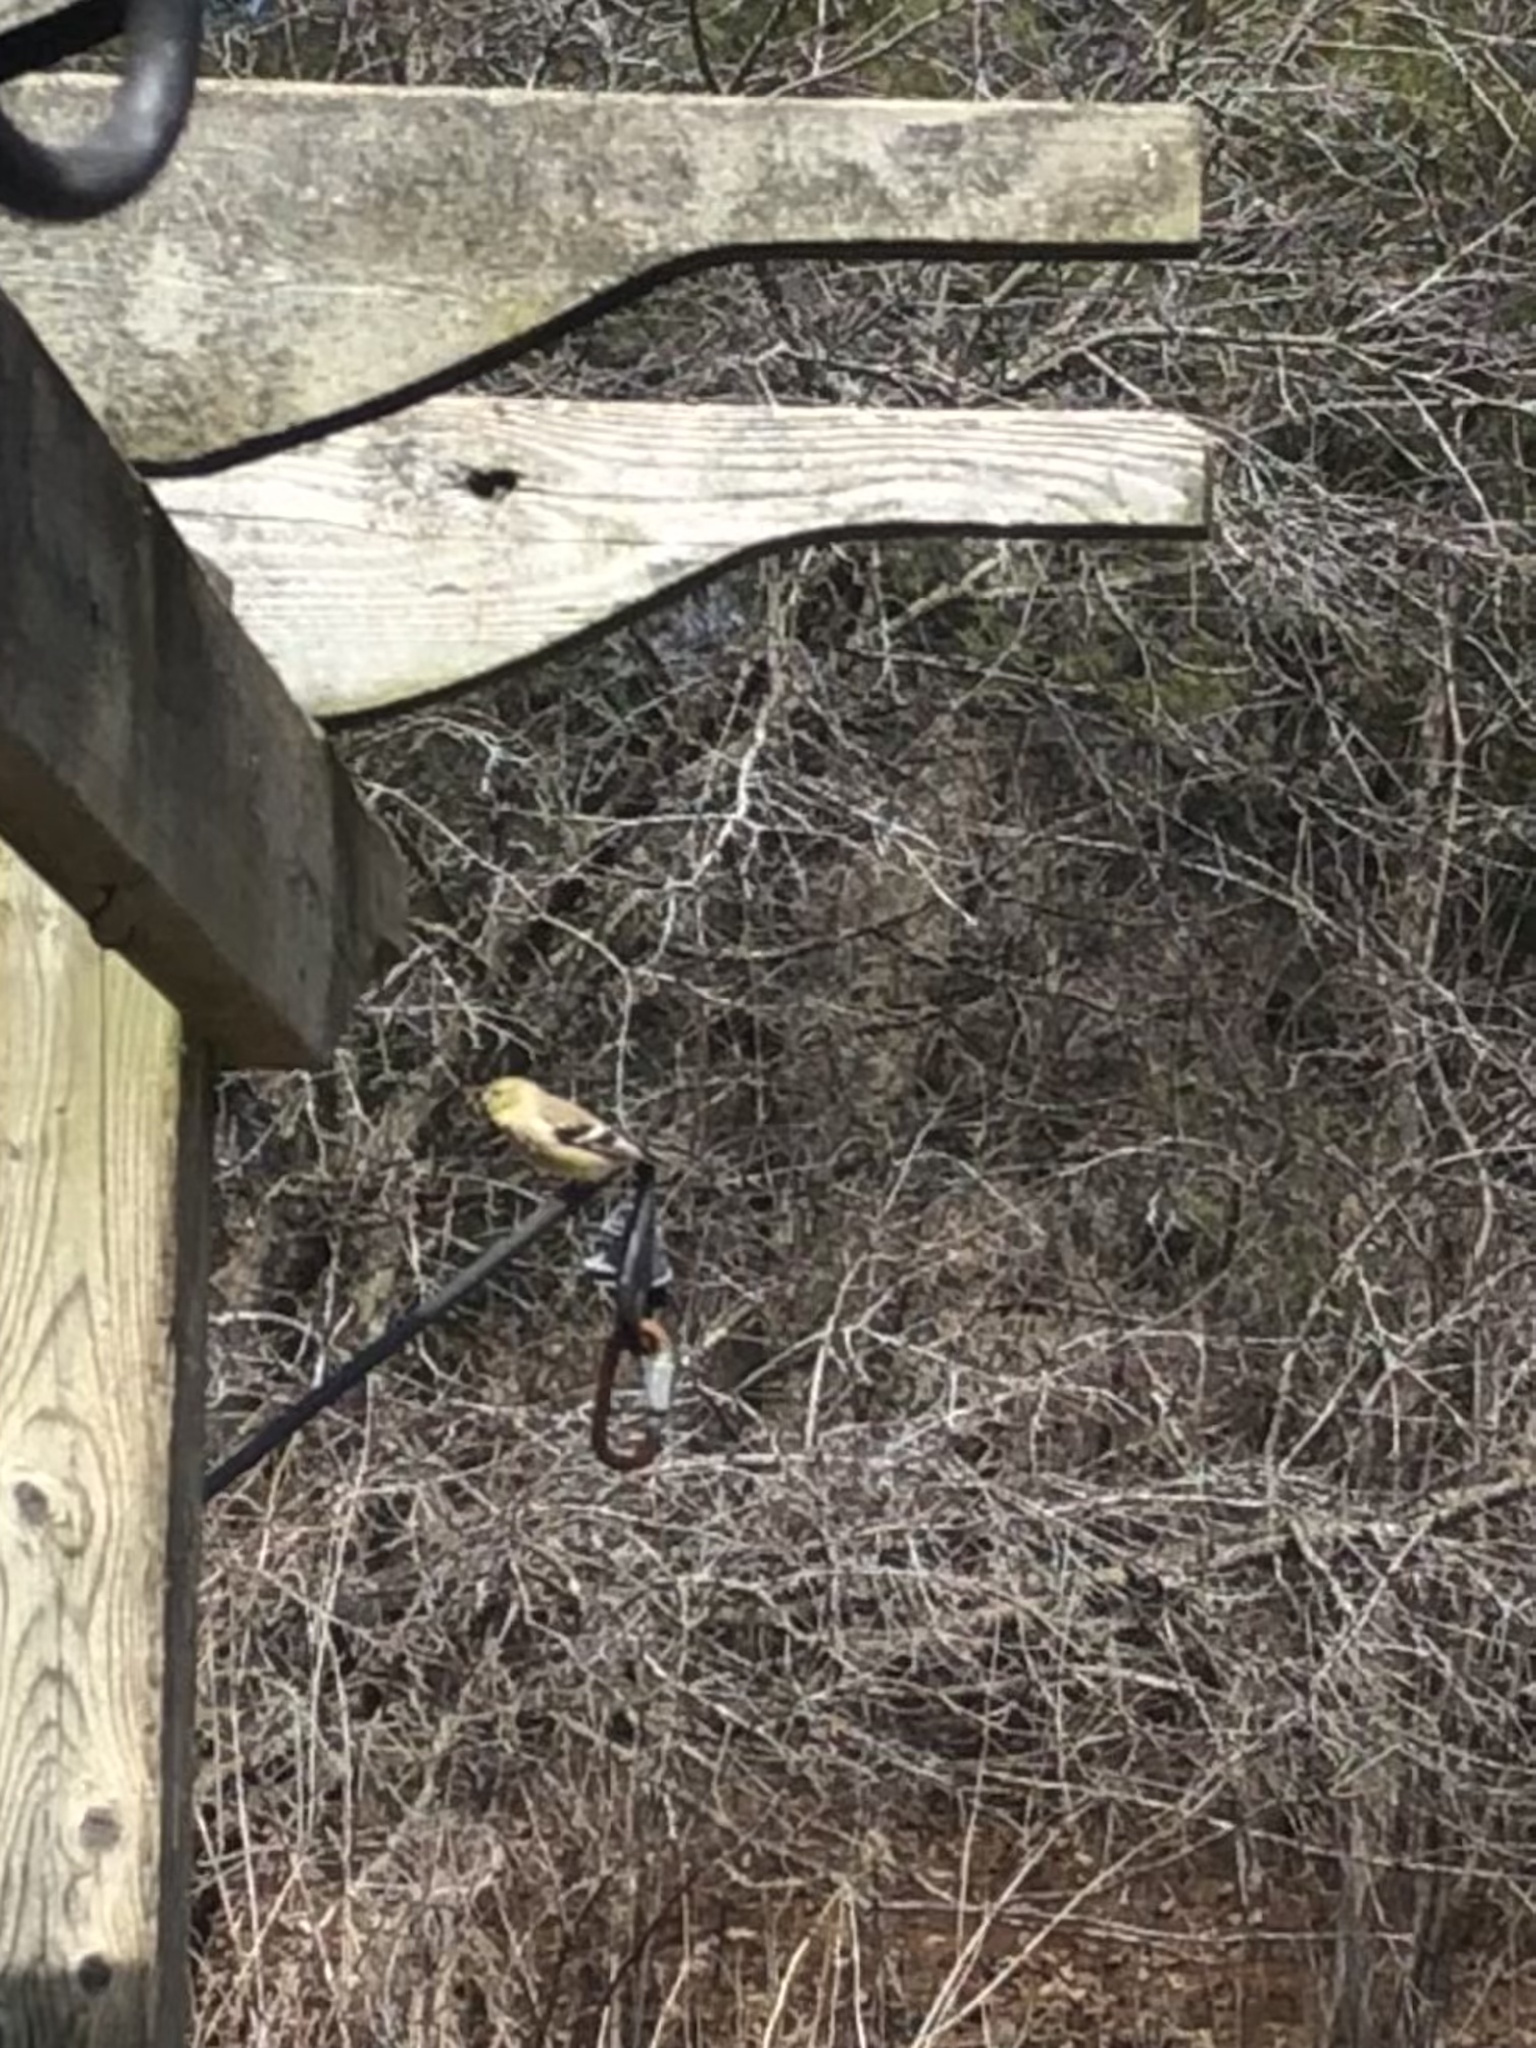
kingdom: Animalia
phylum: Chordata
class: Aves
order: Passeriformes
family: Fringillidae
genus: Spinus
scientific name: Spinus tristis
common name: American goldfinch
